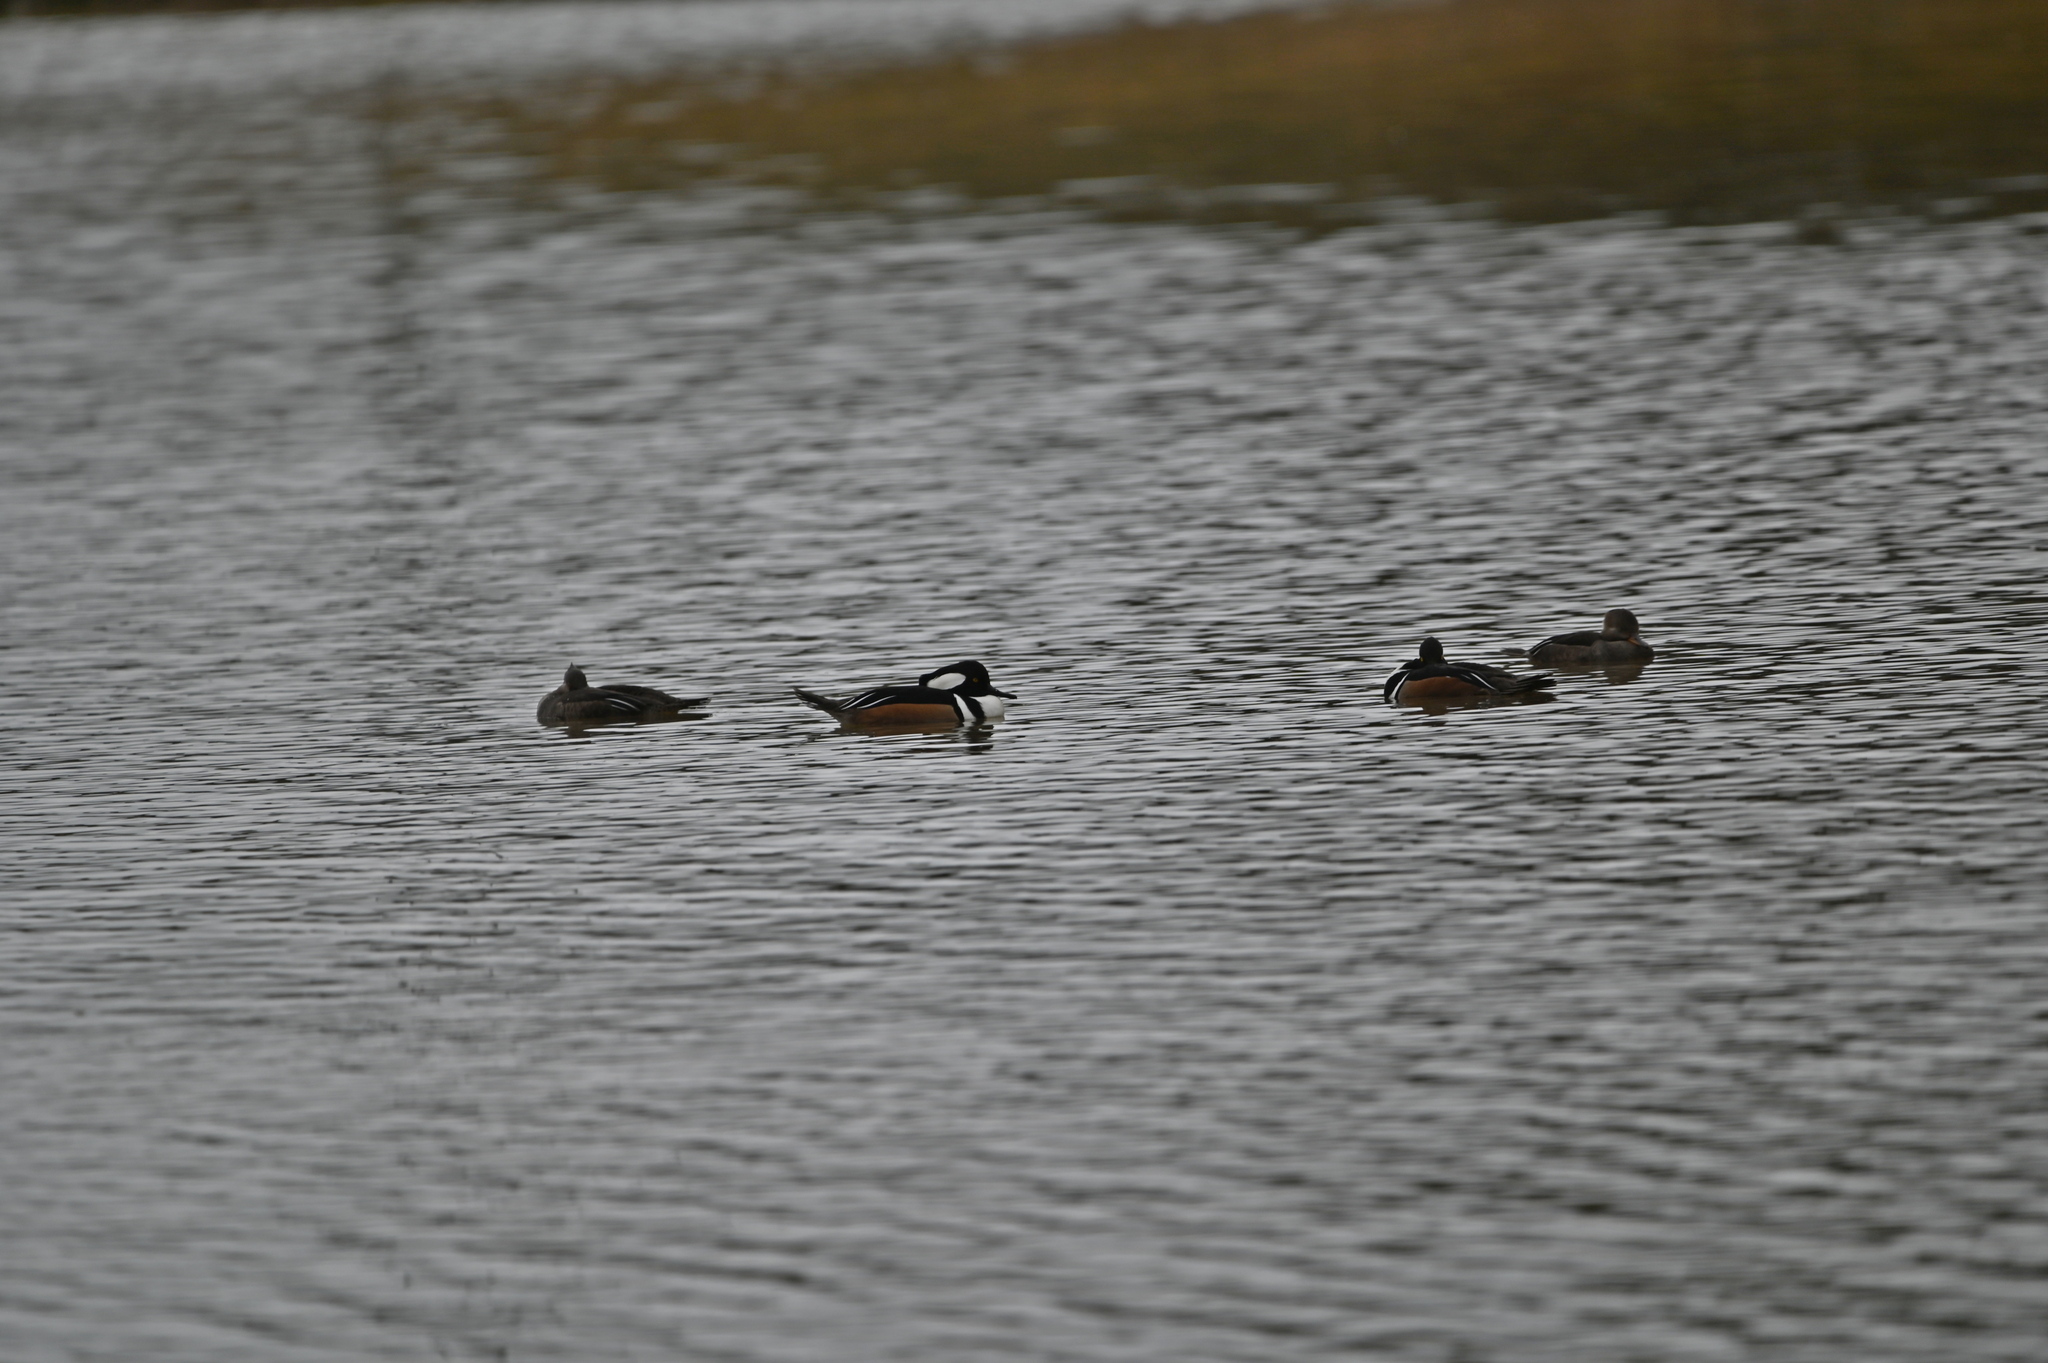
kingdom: Animalia
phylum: Chordata
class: Aves
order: Anseriformes
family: Anatidae
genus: Lophodytes
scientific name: Lophodytes cucullatus
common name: Hooded merganser
